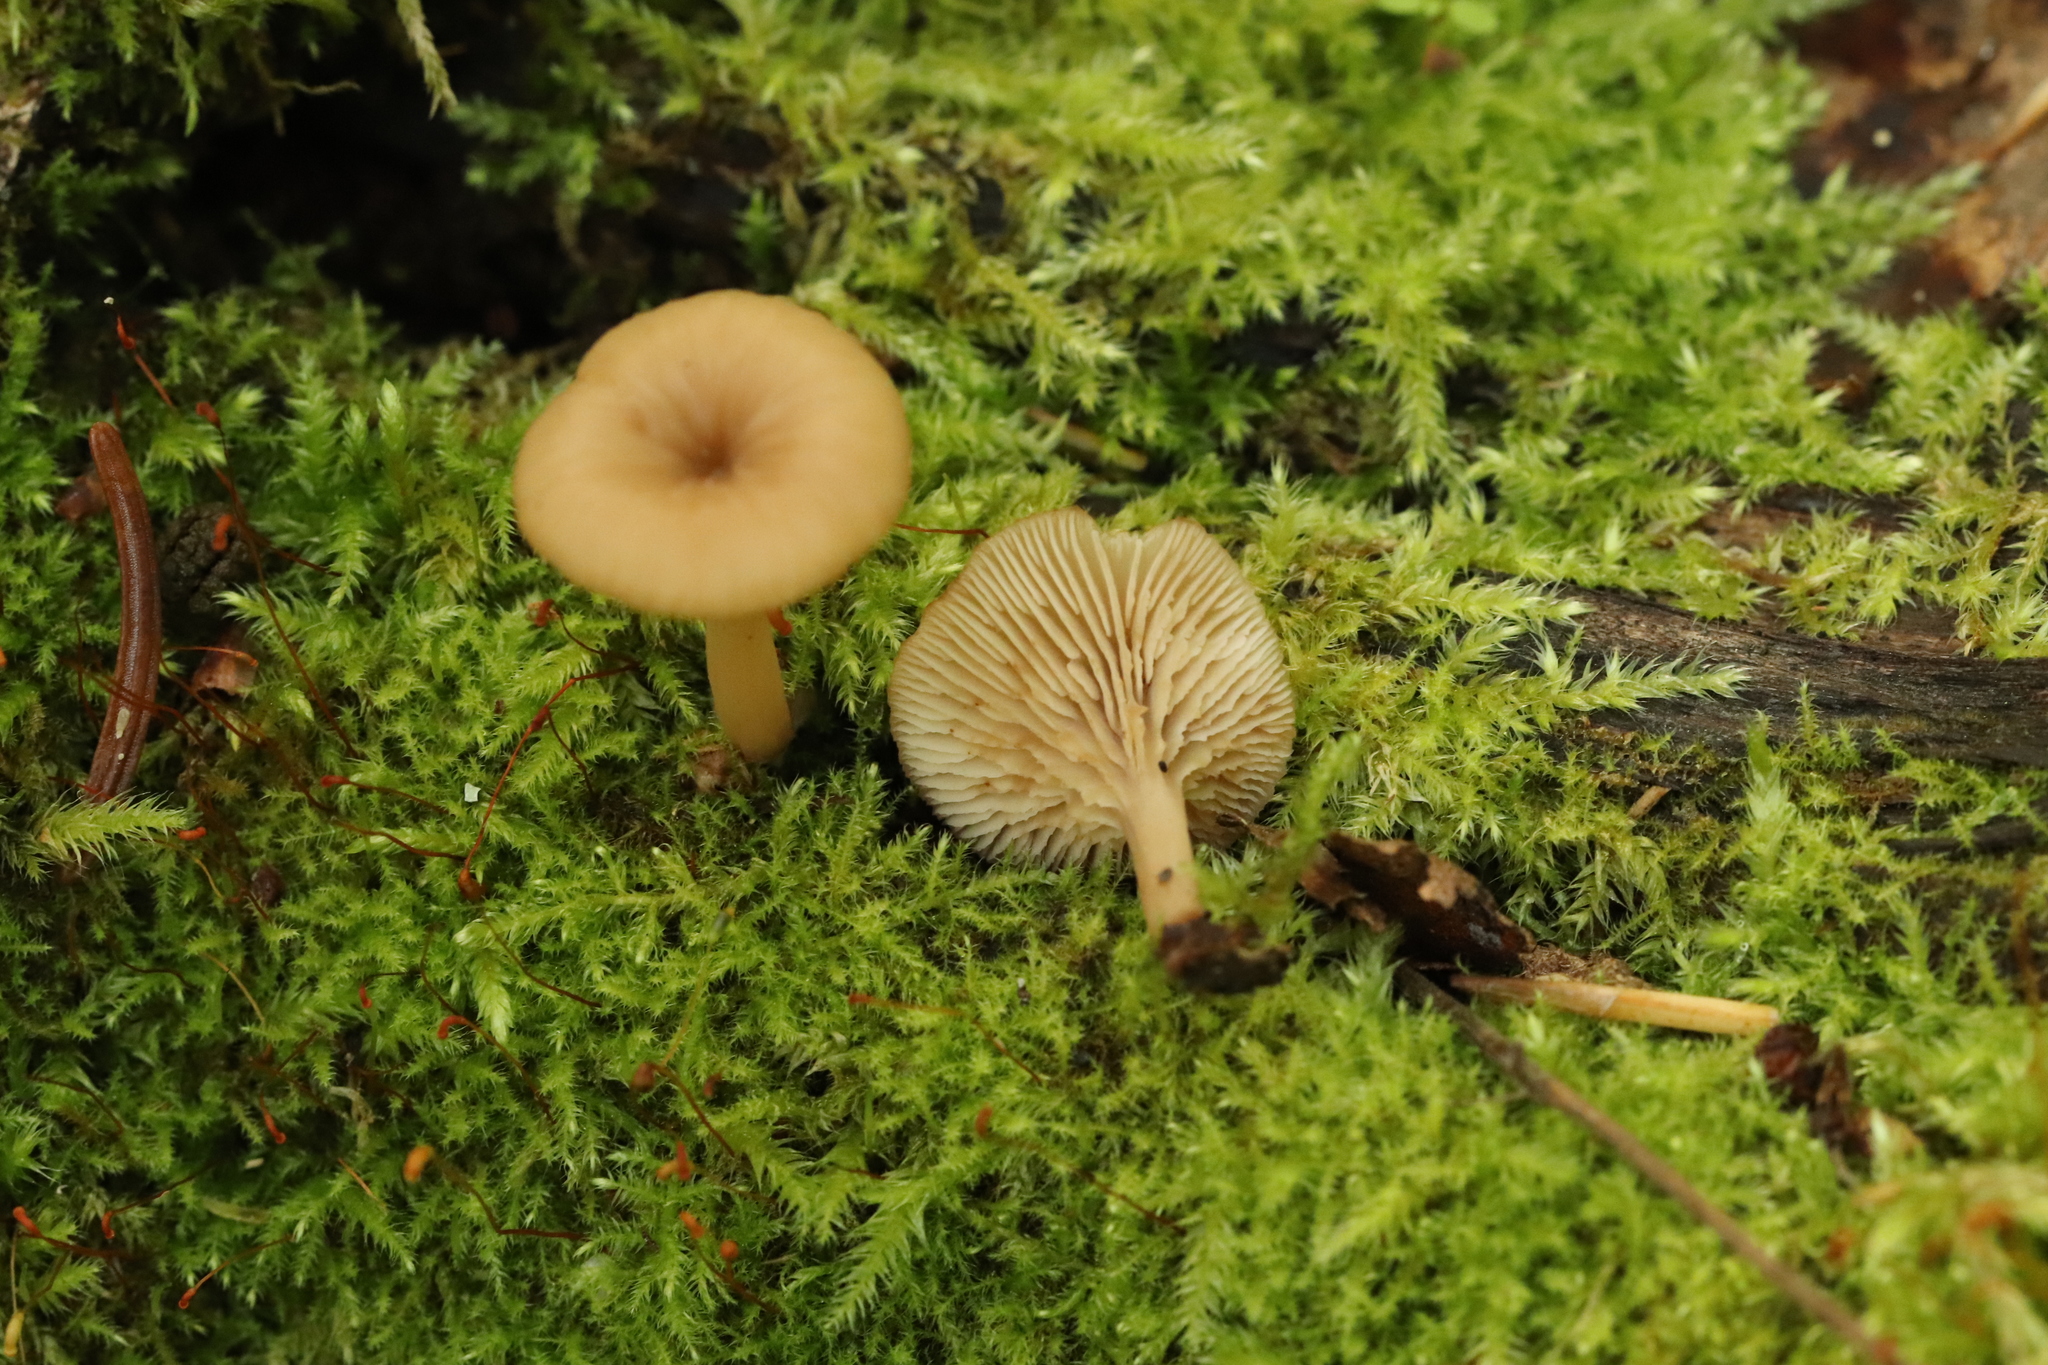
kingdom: Fungi
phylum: Basidiomycota
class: Agaricomycetes
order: Russulales
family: Auriscalpiaceae
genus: Lentinellus
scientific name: Lentinellus micheneri
